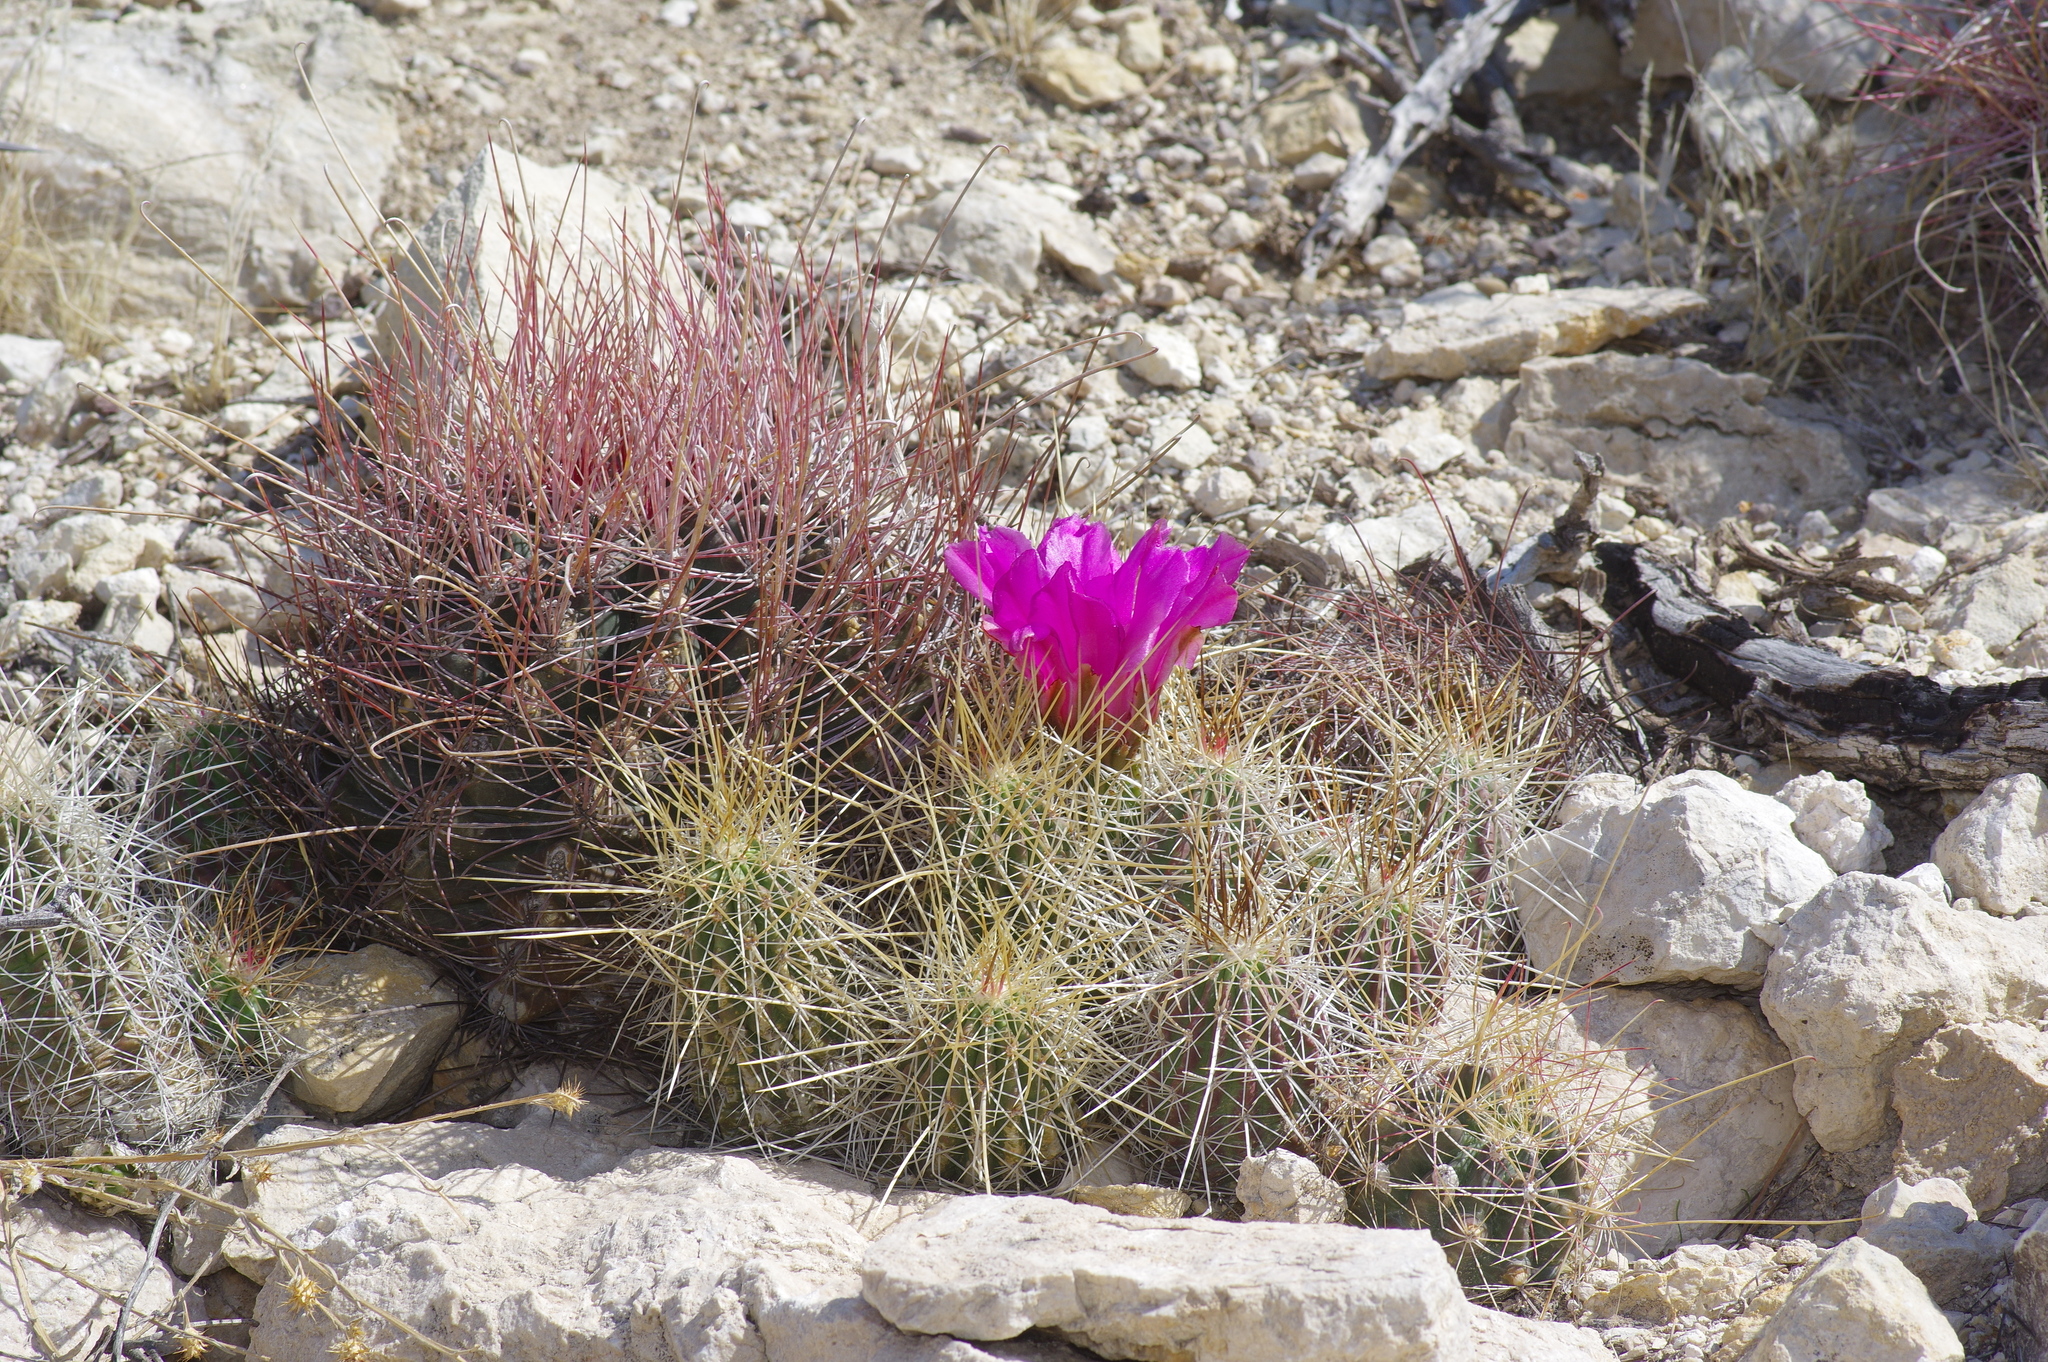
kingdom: Plantae
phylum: Tracheophyta
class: Magnoliopsida
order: Caryophyllales
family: Cactaceae
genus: Echinocereus
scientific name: Echinocereus stramineus
